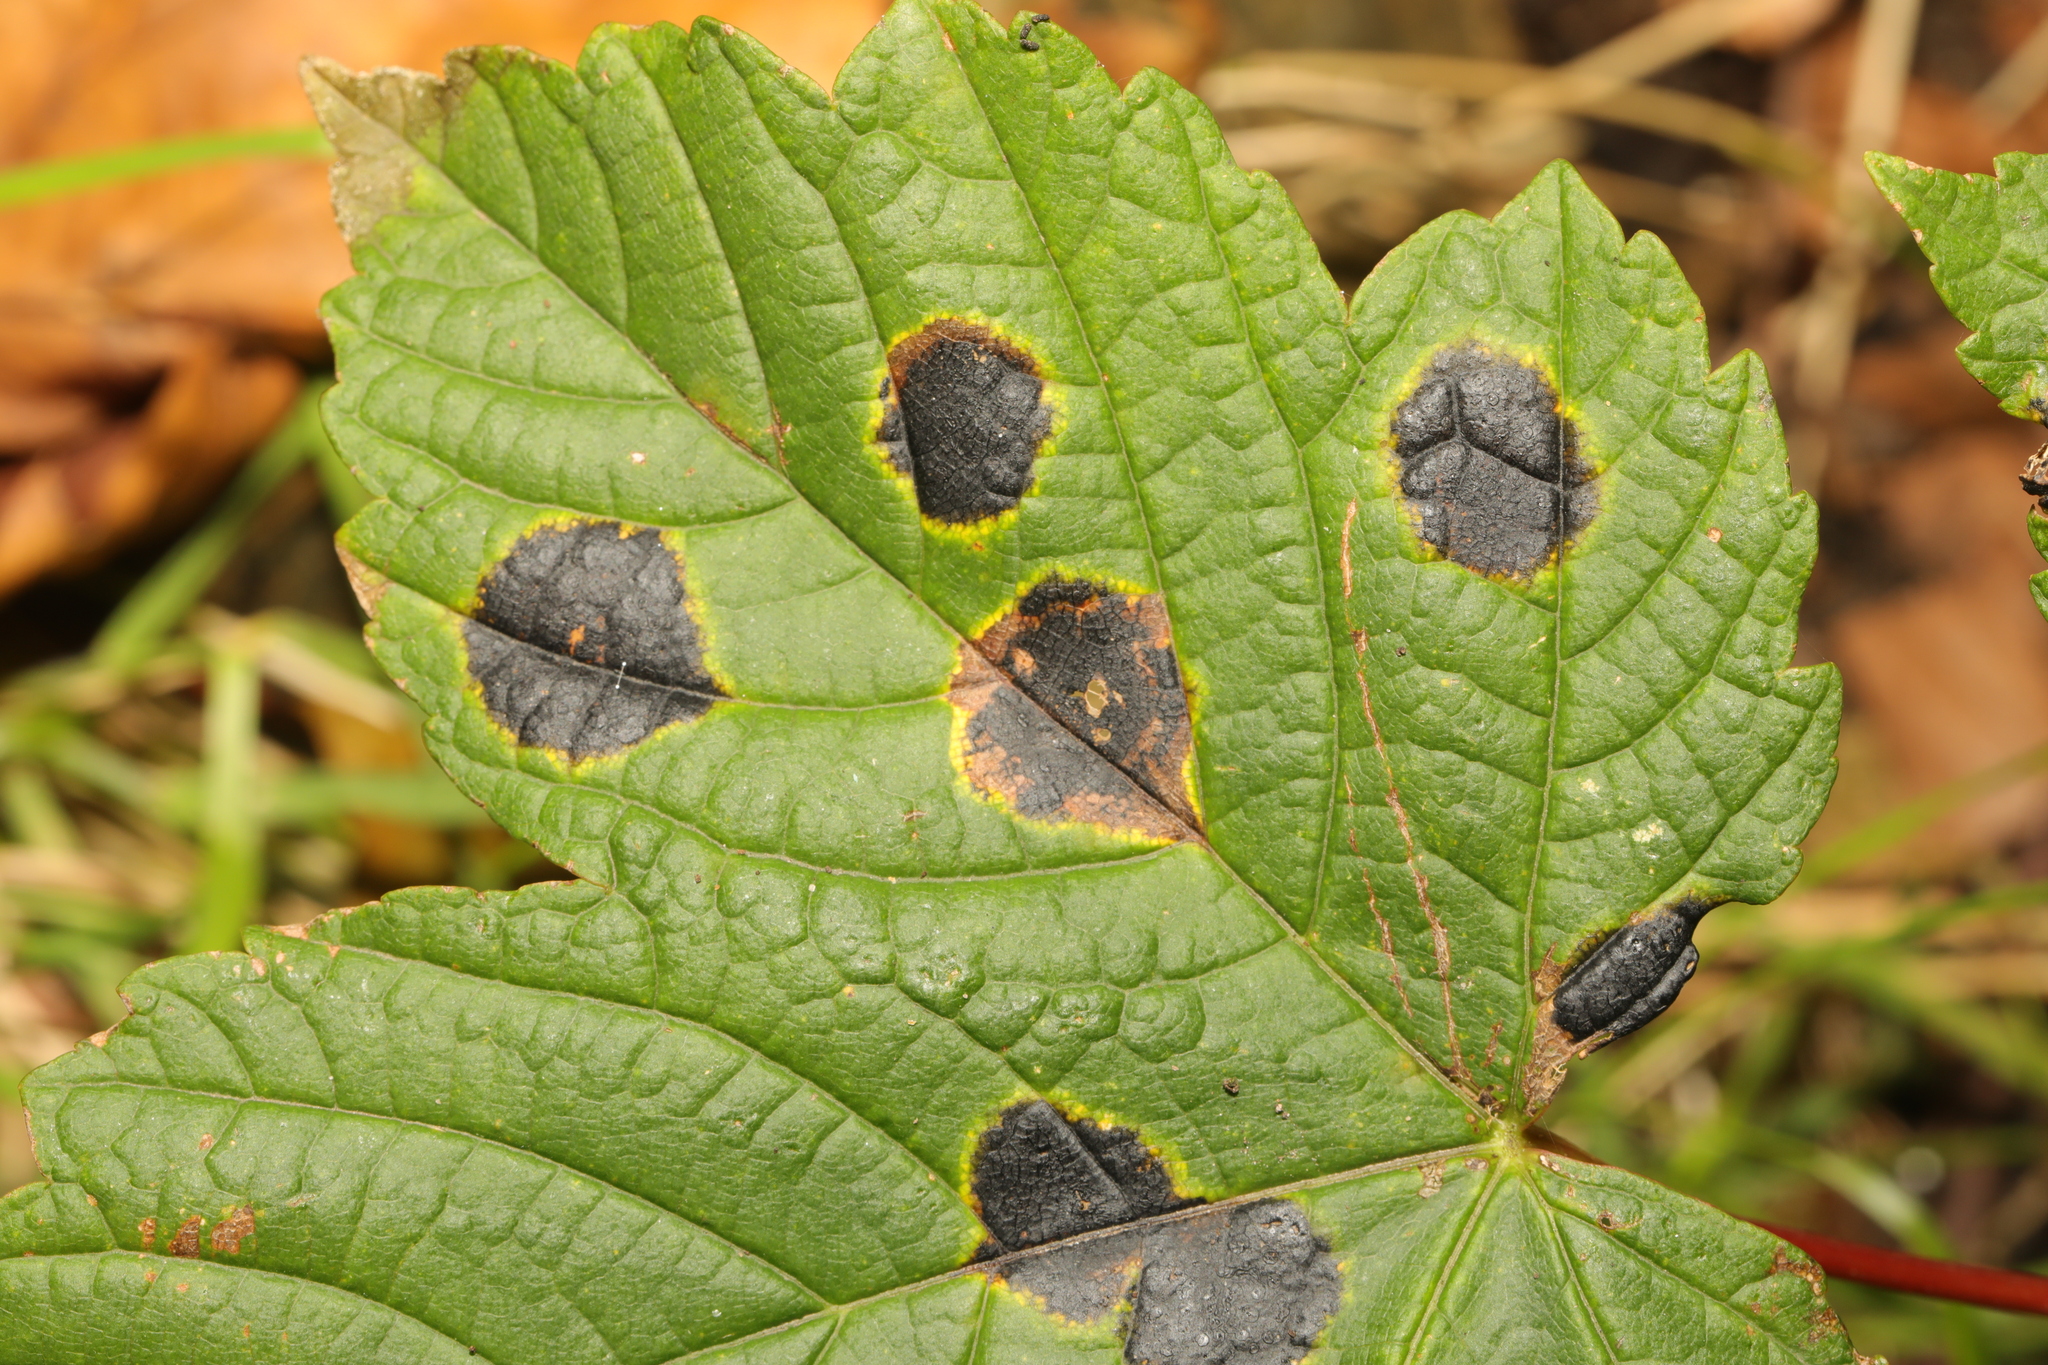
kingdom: Fungi
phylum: Ascomycota
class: Leotiomycetes
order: Rhytismatales
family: Rhytismataceae
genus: Rhytisma
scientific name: Rhytisma acerinum
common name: European tar spot
